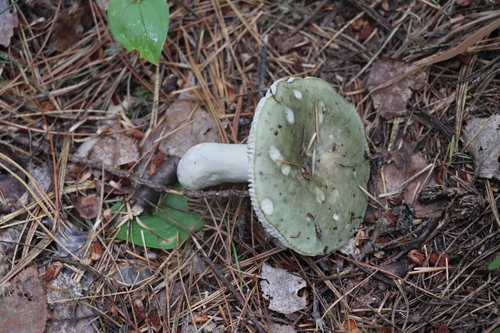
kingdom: Fungi
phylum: Basidiomycota
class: Agaricomycetes
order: Russulales
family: Russulaceae
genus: Russula
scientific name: Russula aeruginea
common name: Green brittlegill
